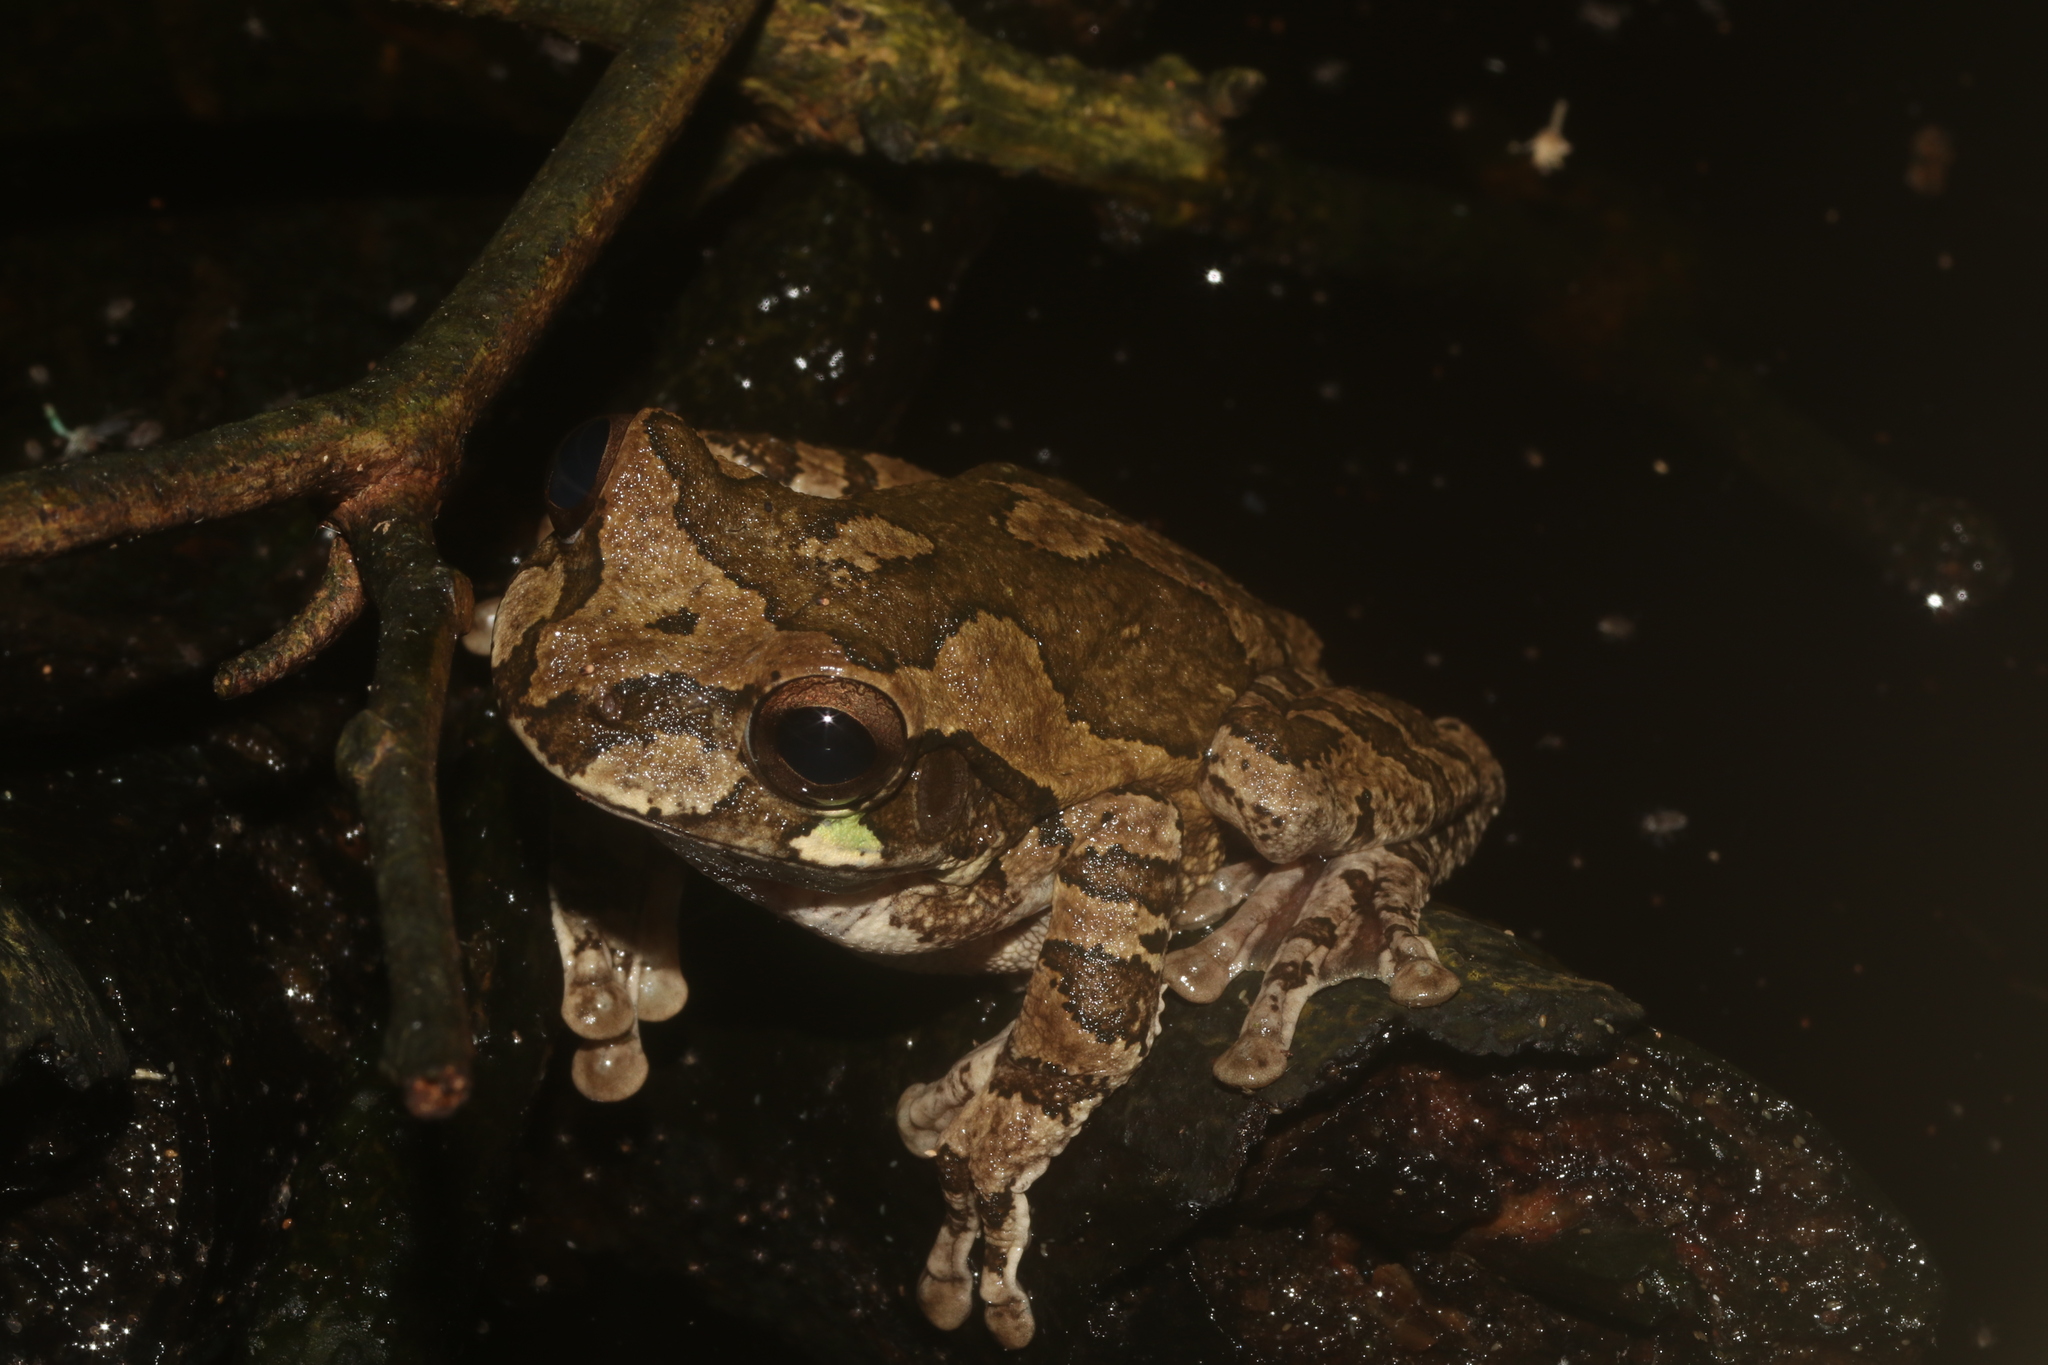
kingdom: Animalia
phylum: Chordata
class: Amphibia
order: Anura
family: Hylidae
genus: Smilisca
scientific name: Smilisca baudinii
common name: Mexican smilisca
